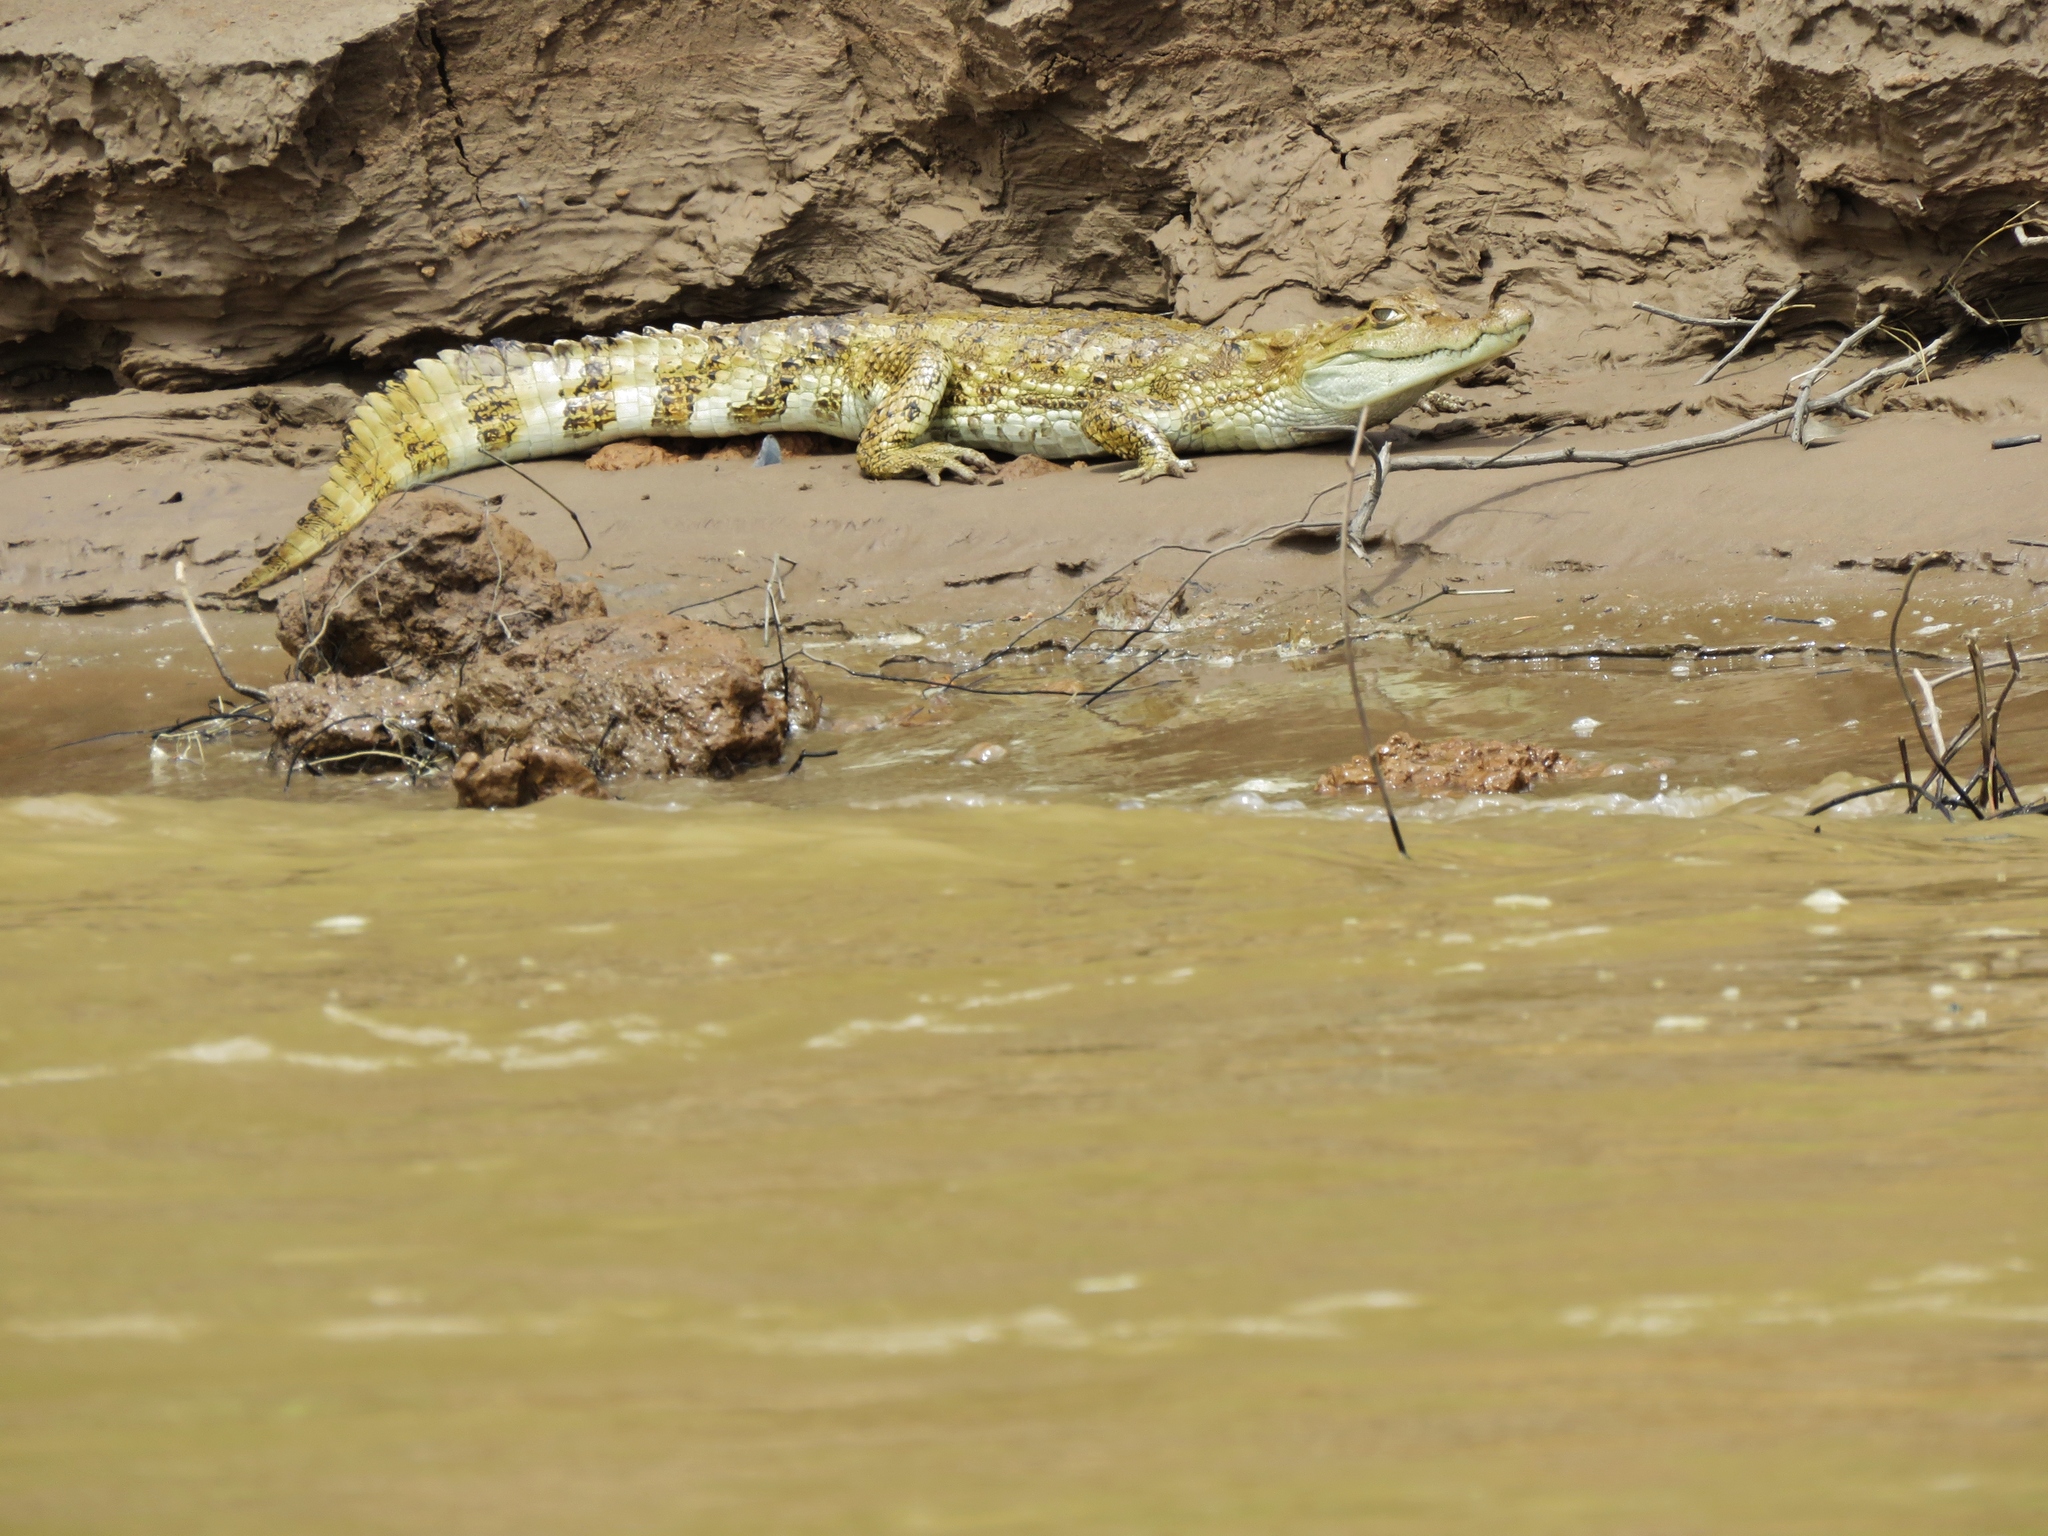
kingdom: Animalia
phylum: Chordata
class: Crocodylia
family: Alligatoridae
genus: Caiman
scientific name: Caiman crocodilus
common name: Common caiman
